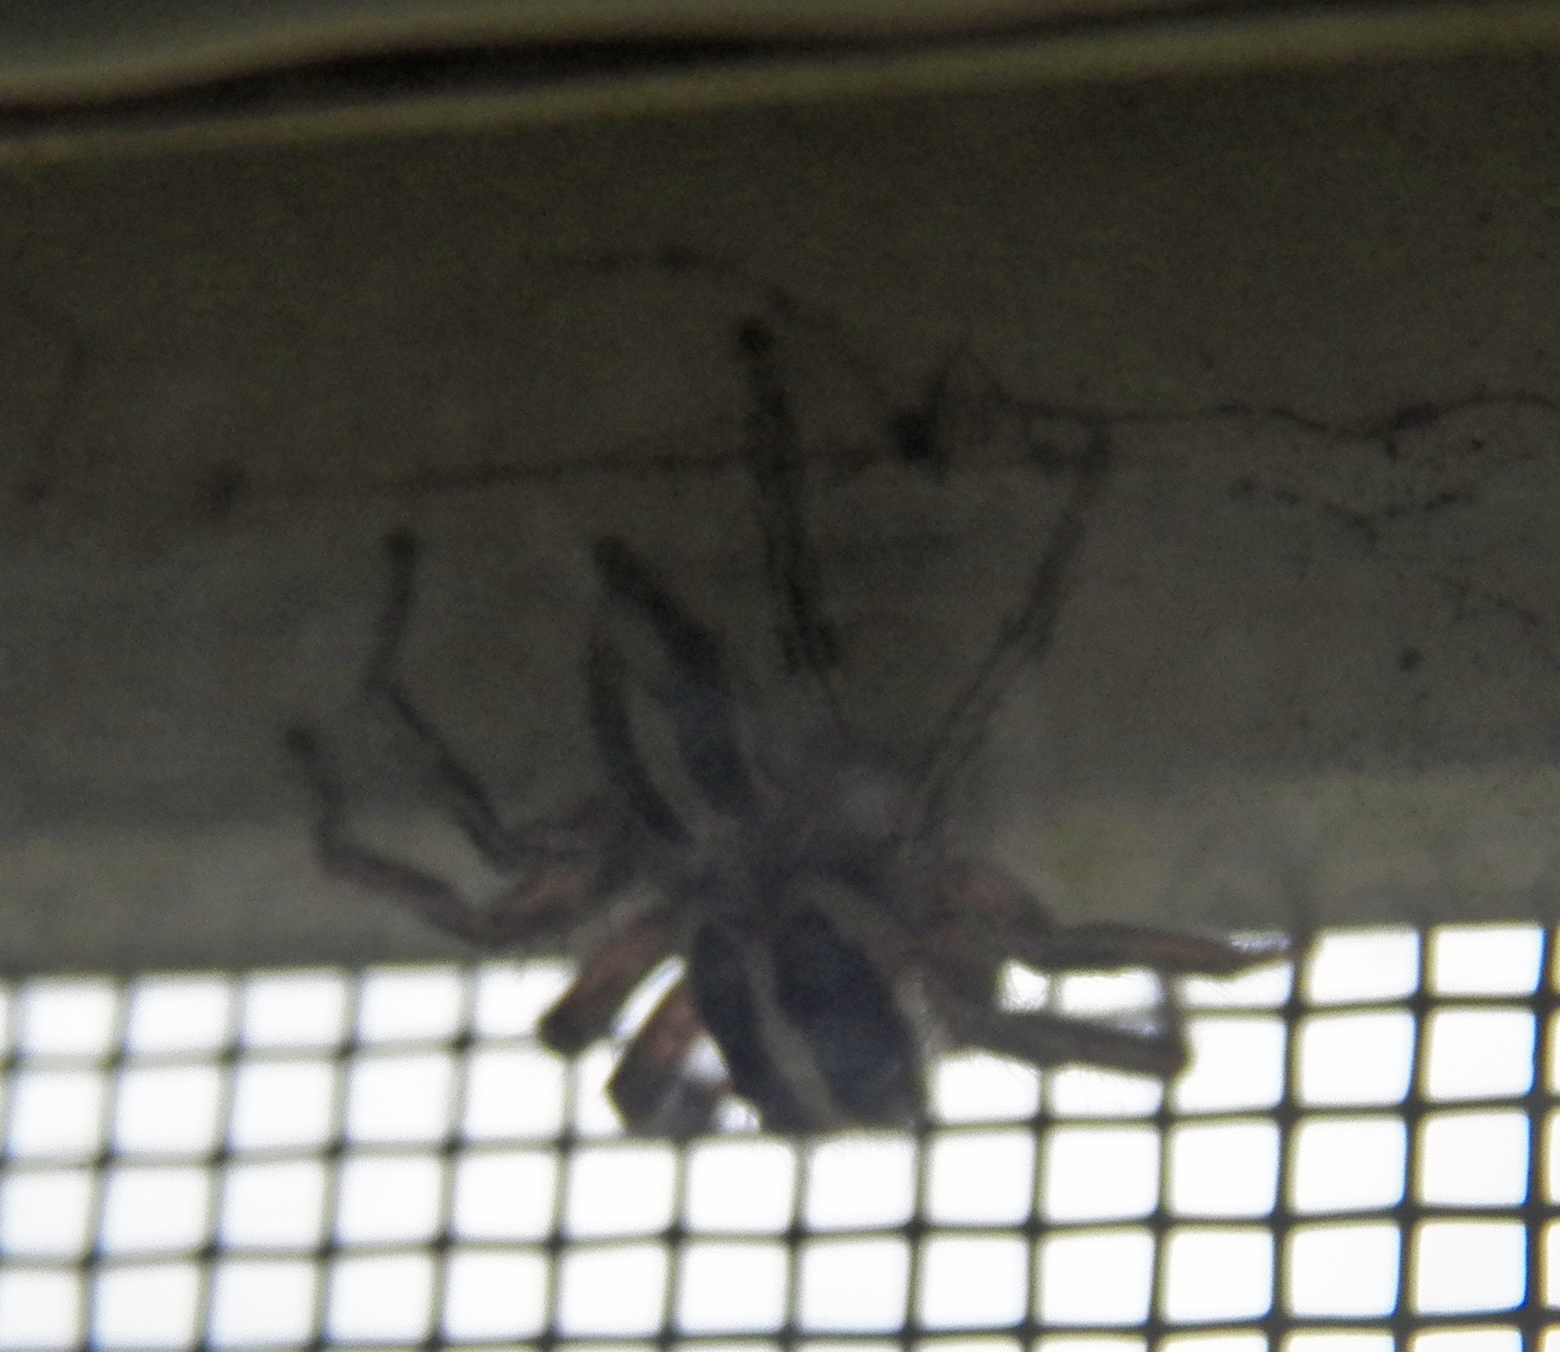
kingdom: Animalia
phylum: Arthropoda
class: Arachnida
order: Araneae
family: Salticidae
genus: Plexippus
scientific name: Plexippus paykulli
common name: Pantropical jumper
